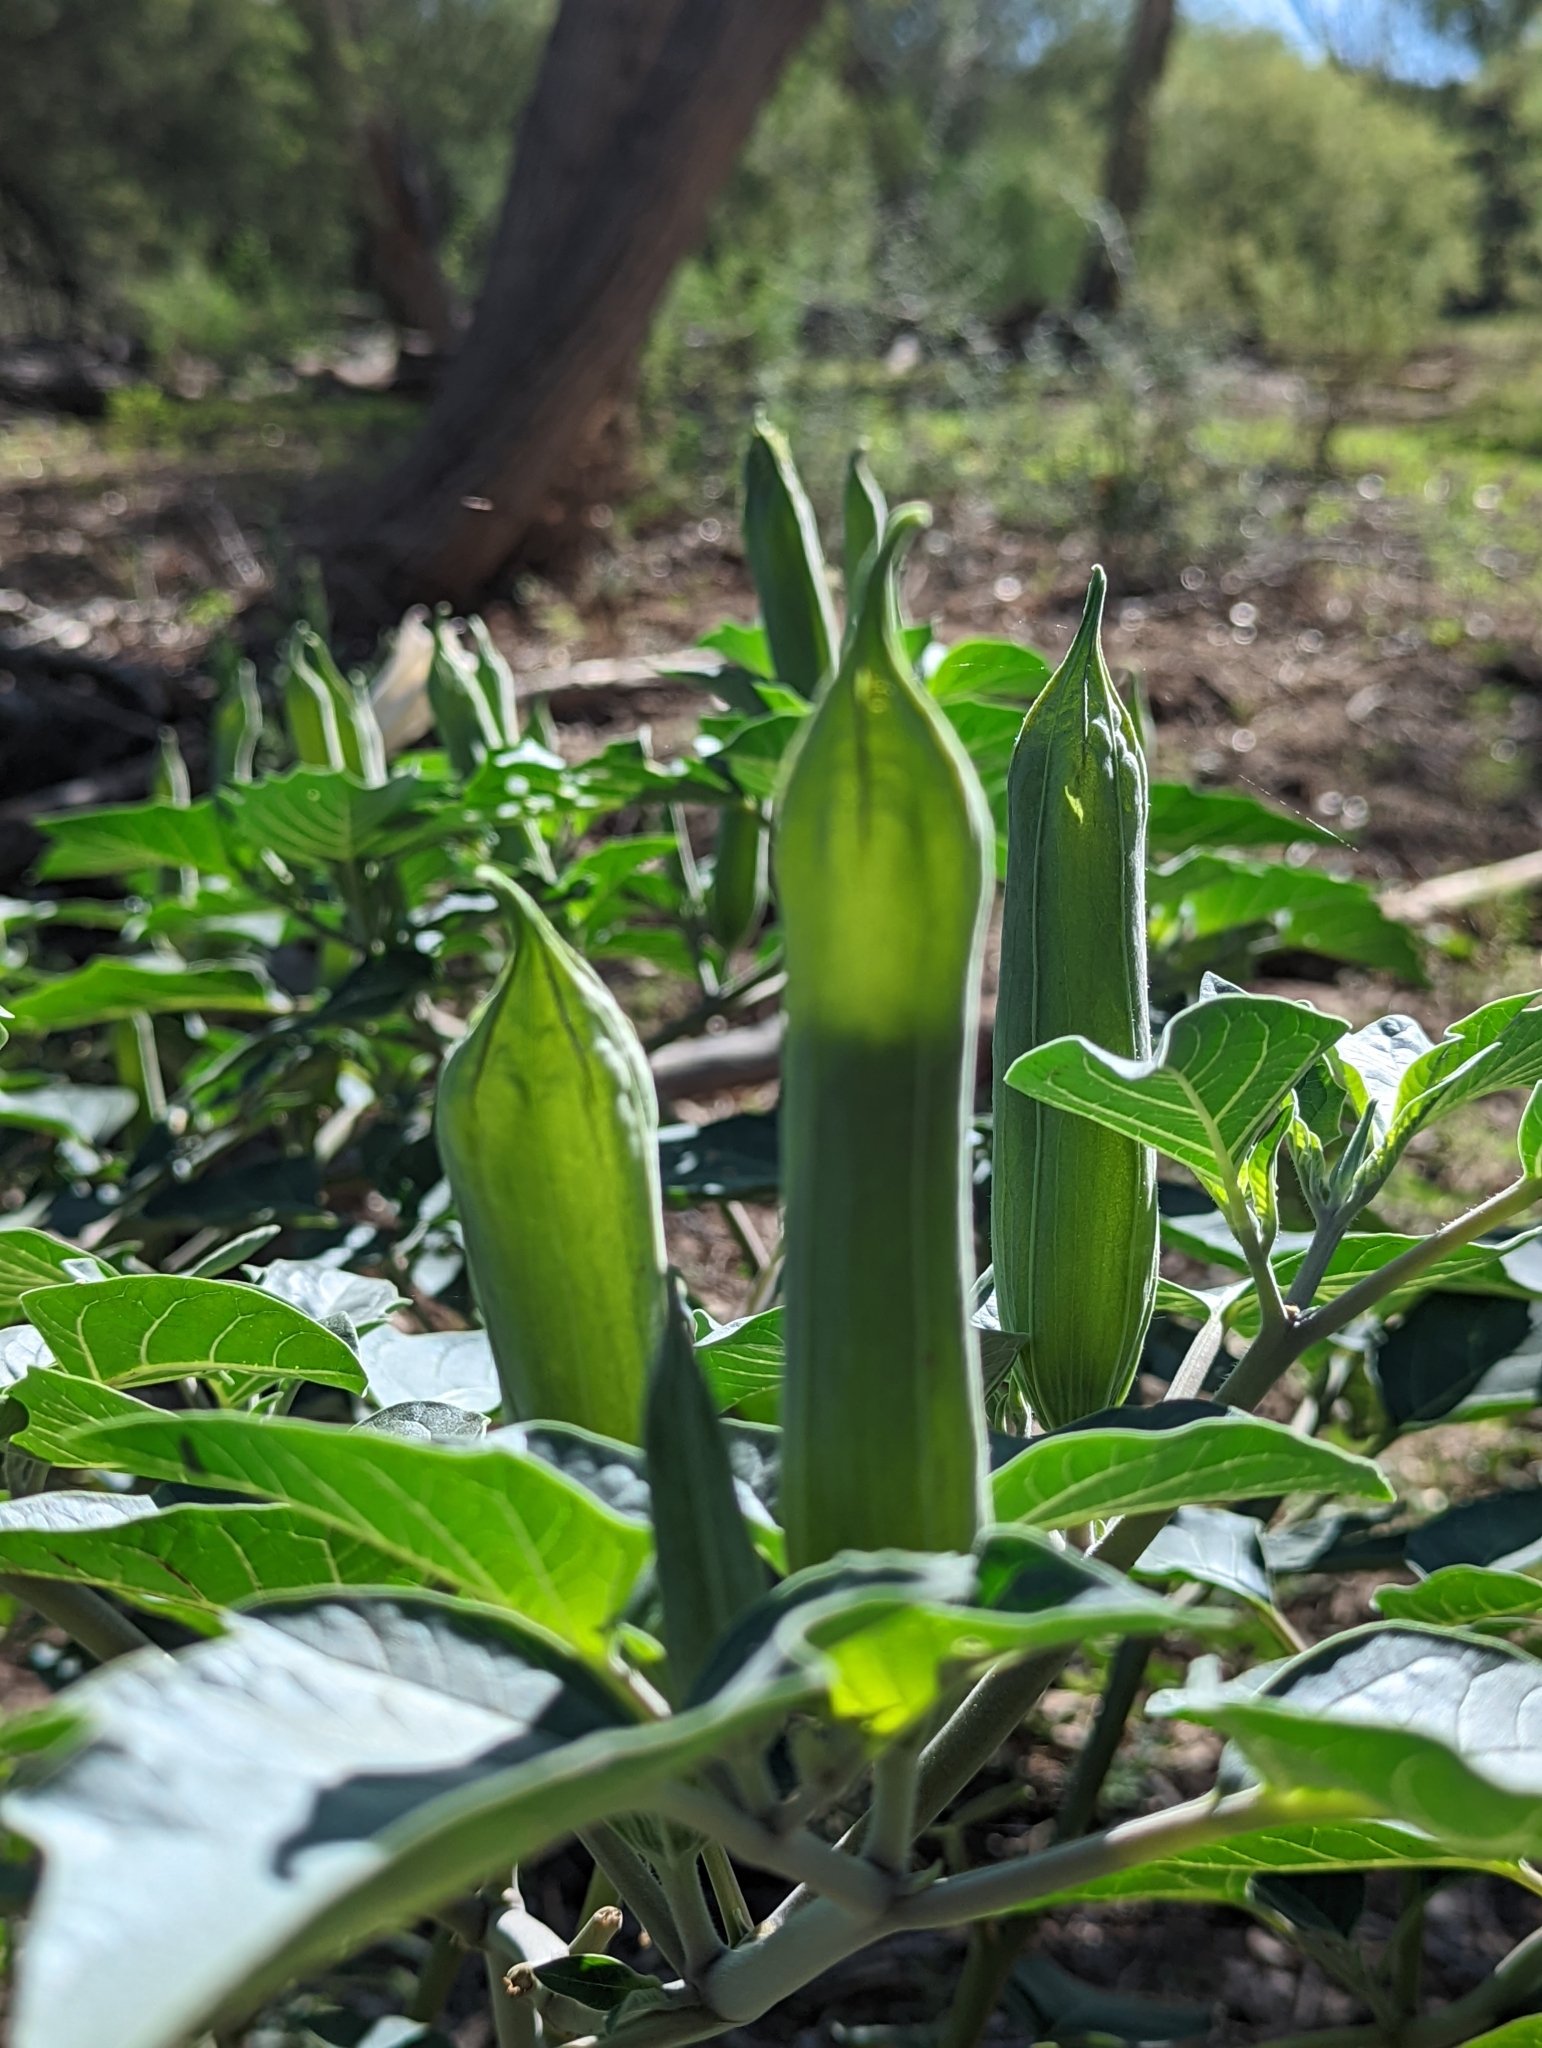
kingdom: Plantae
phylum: Tracheophyta
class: Magnoliopsida
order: Solanales
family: Solanaceae
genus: Datura
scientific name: Datura wrightii
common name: Sacred thorn-apple
